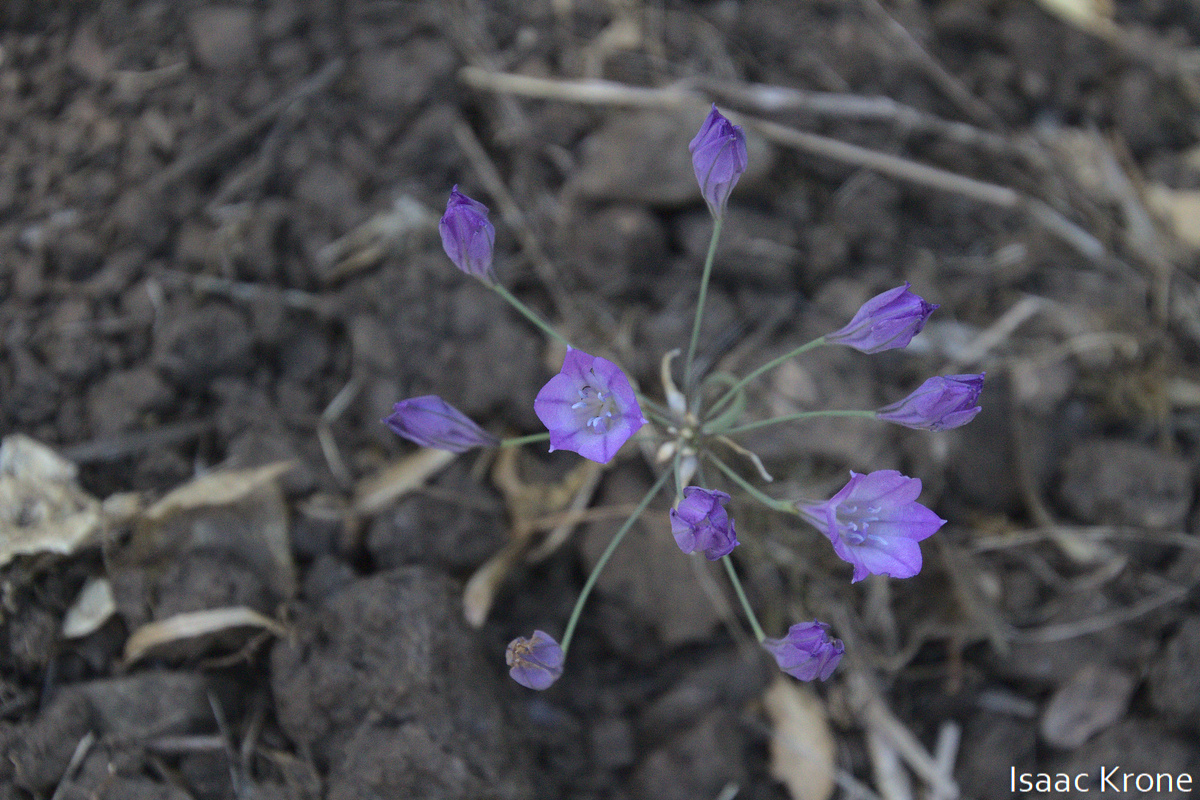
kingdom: Plantae
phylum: Tracheophyta
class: Liliopsida
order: Asparagales
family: Asparagaceae
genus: Triteleia
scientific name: Triteleia laxa
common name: Triplet-lily
